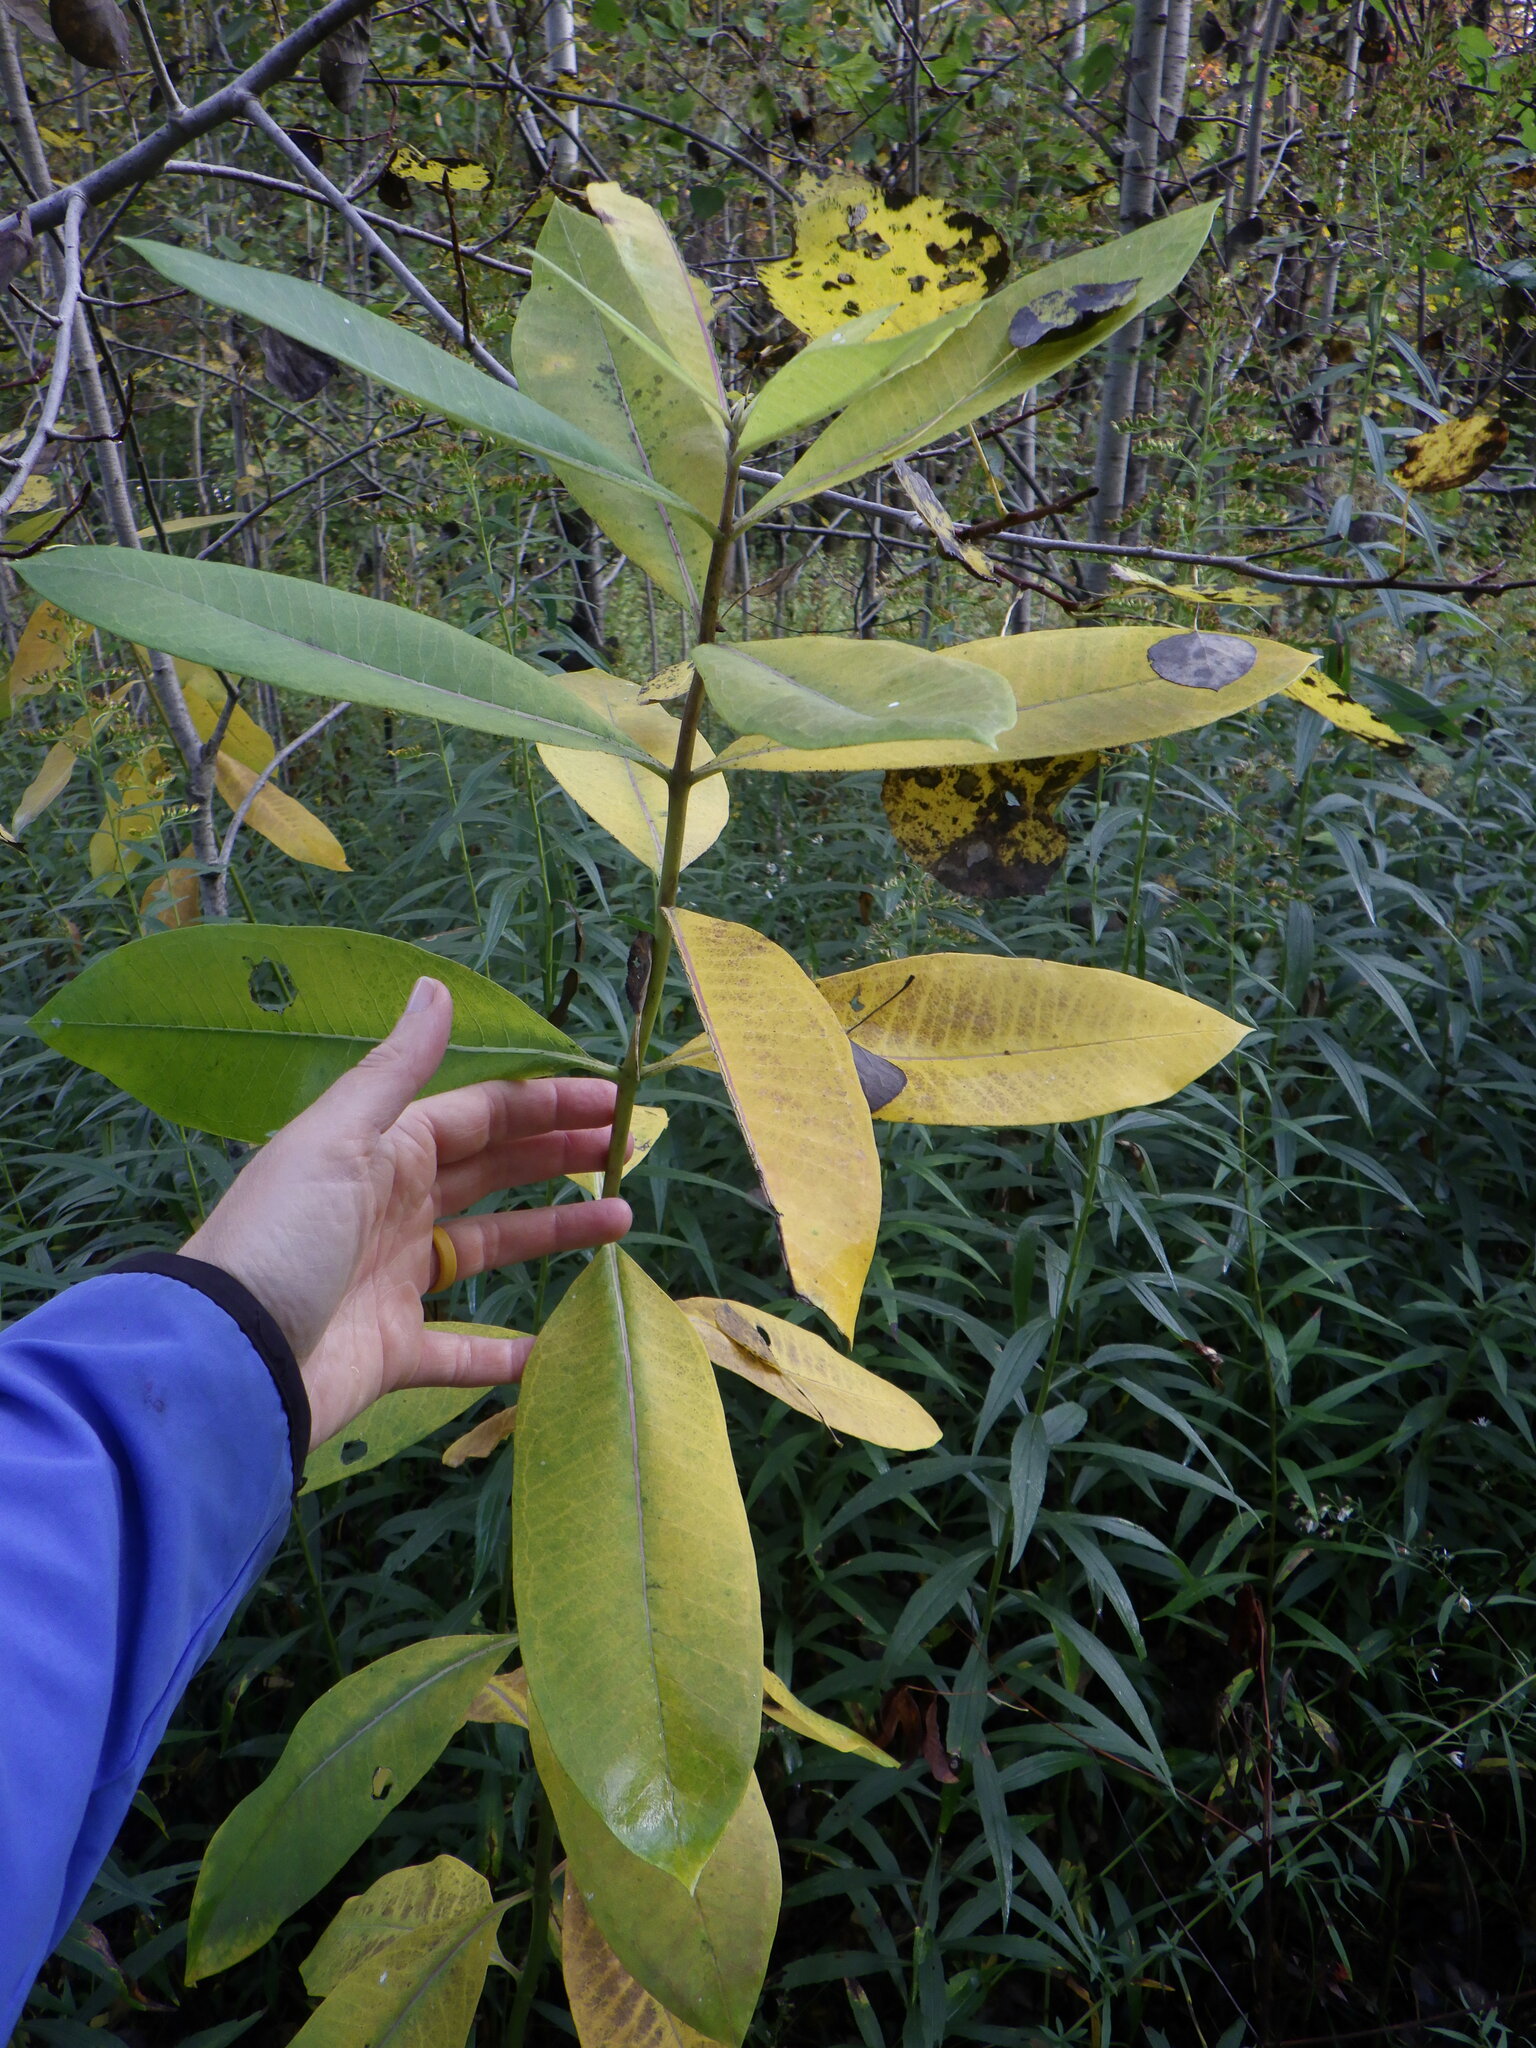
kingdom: Plantae
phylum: Tracheophyta
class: Magnoliopsida
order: Gentianales
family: Apocynaceae
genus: Asclepias
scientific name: Asclepias syriaca
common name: Common milkweed
